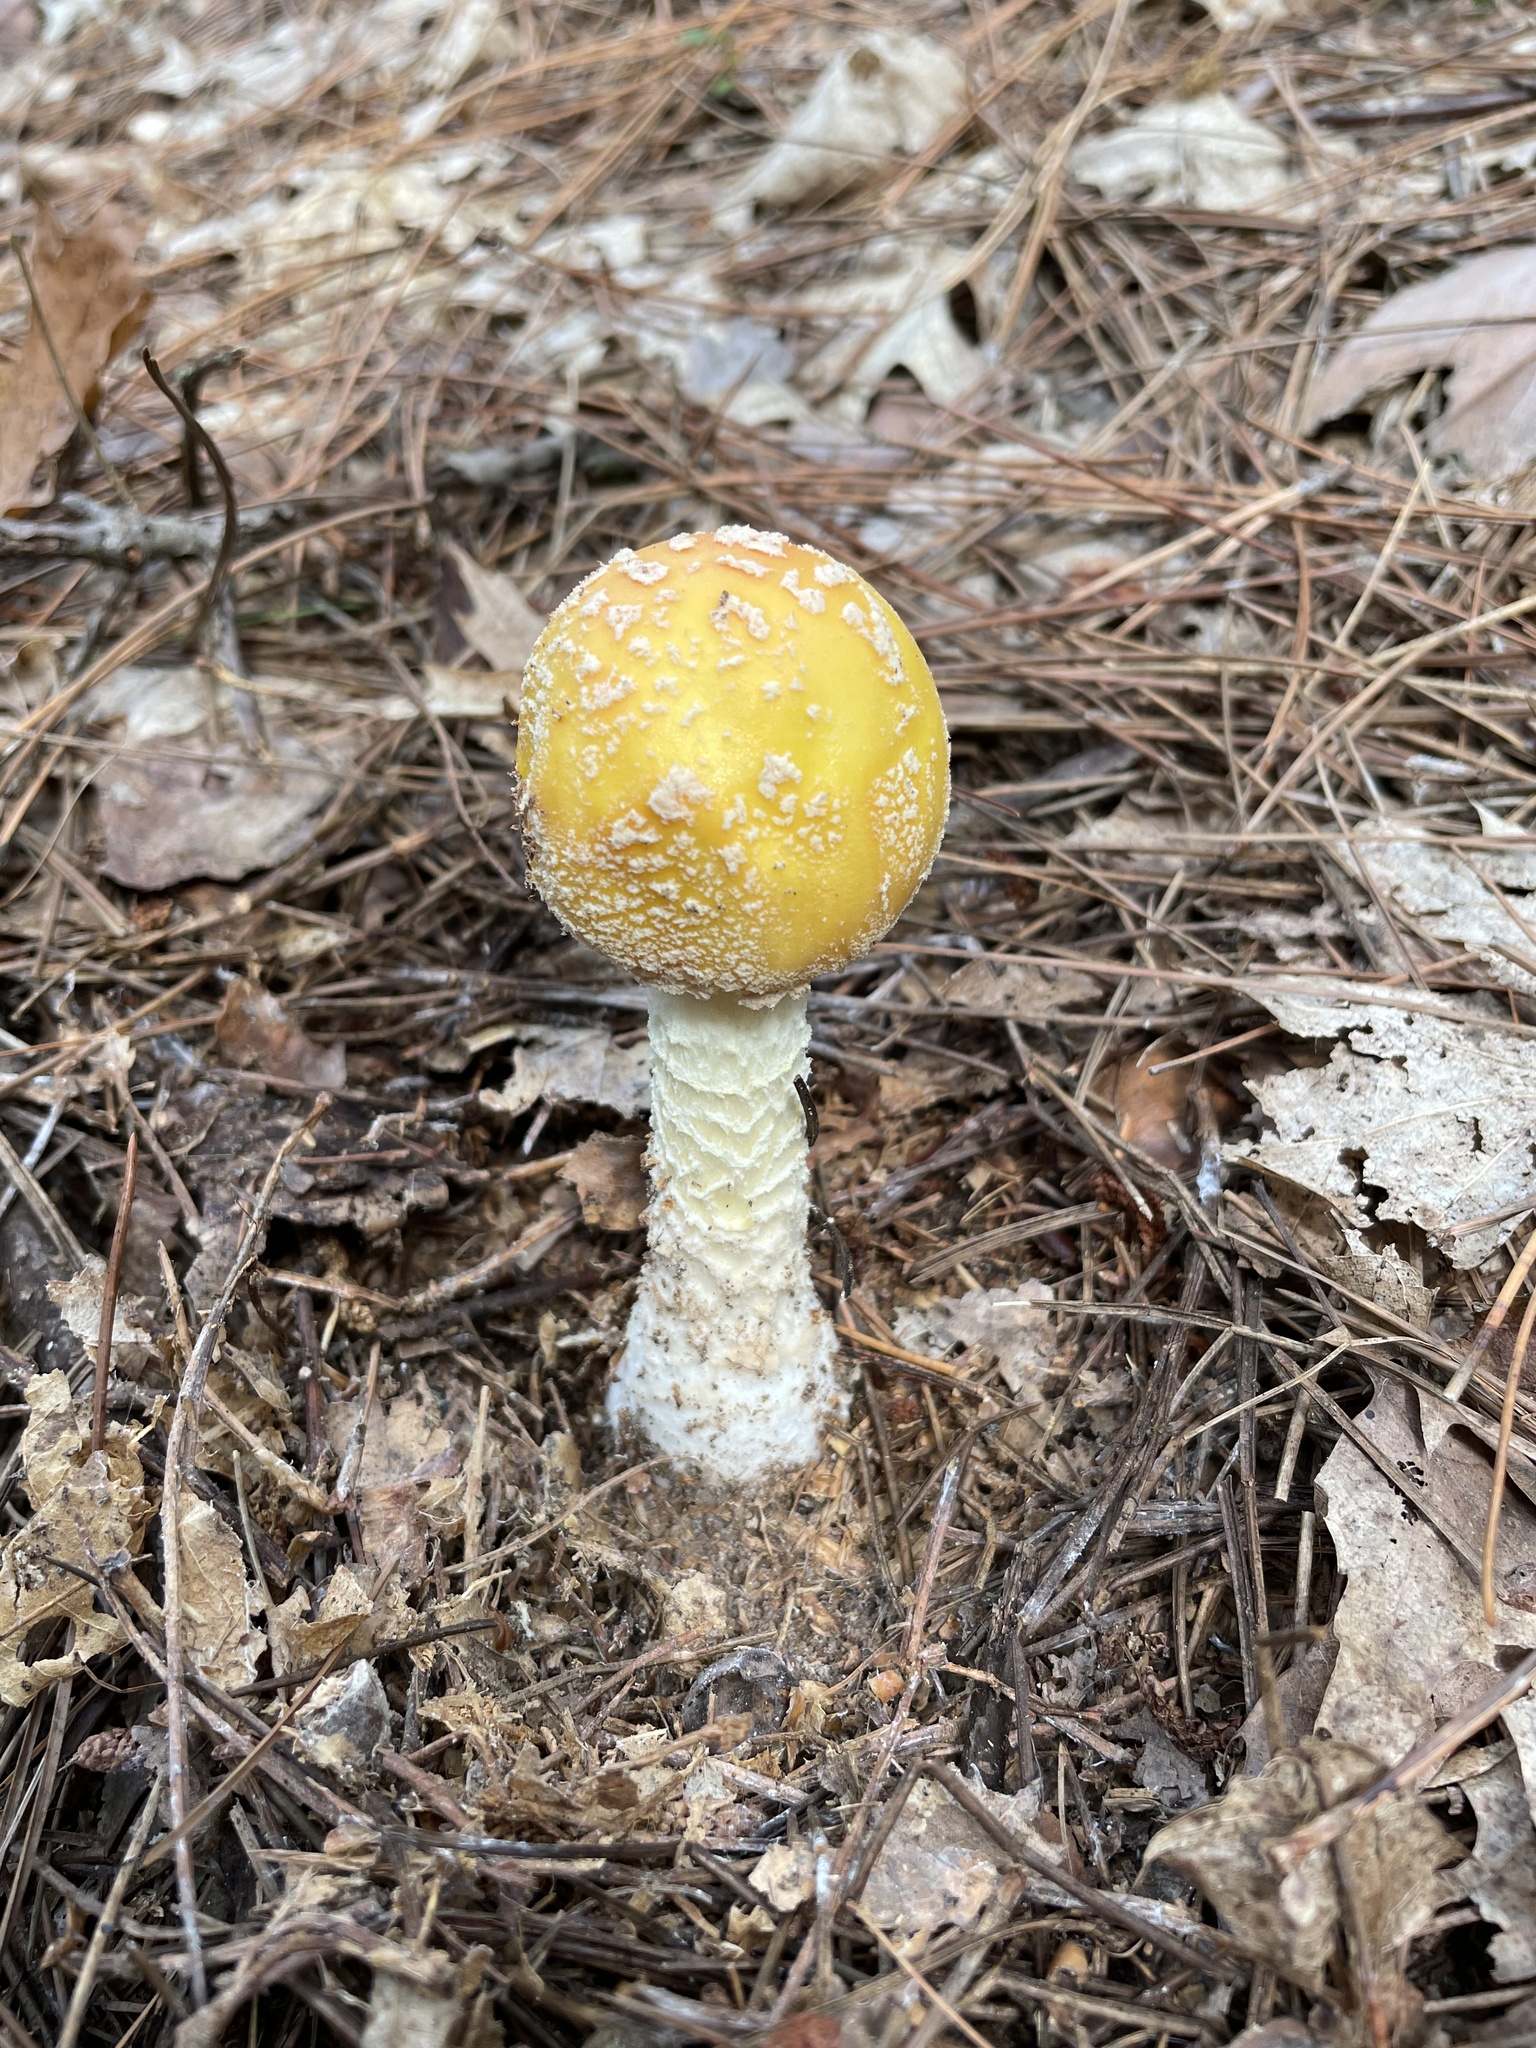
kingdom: Fungi
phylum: Basidiomycota
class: Agaricomycetes
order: Agaricales
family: Amanitaceae
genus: Amanita
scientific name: Amanita muscaria
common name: Fly agaric
